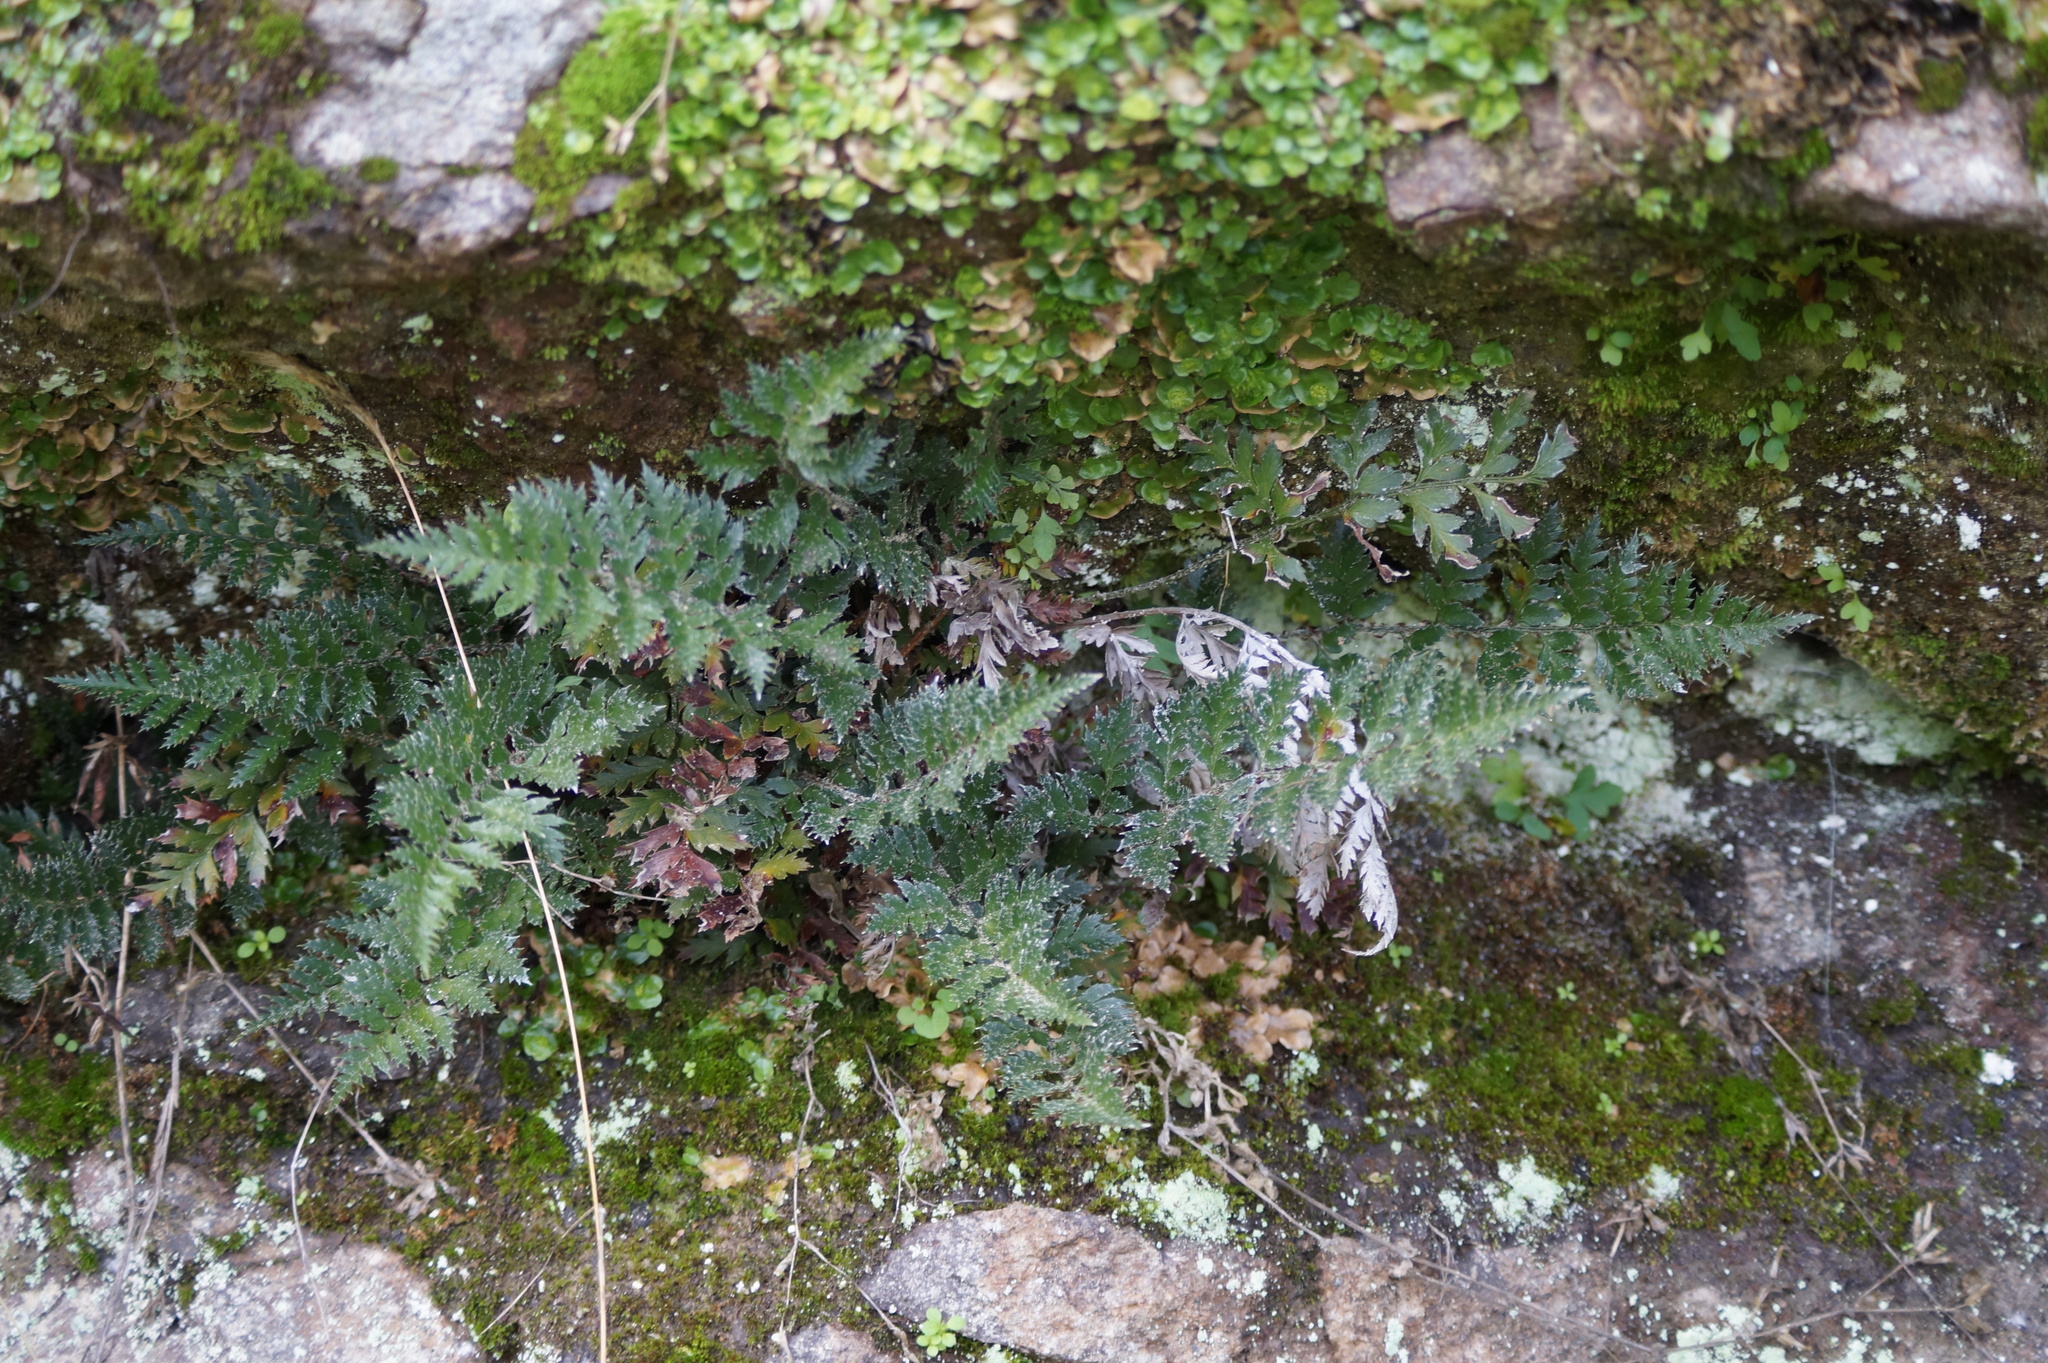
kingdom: Plantae
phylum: Tracheophyta
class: Polypodiopsida
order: Polypodiales
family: Dryopteridaceae
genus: Polystichum
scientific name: Polystichum oculatum
